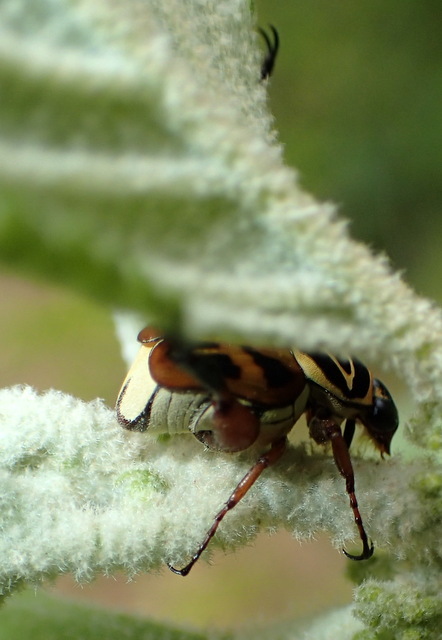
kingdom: Animalia
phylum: Arthropoda
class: Insecta
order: Coleoptera
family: Scarabaeidae
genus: Trigonopeltastes
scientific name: Trigonopeltastes delta
